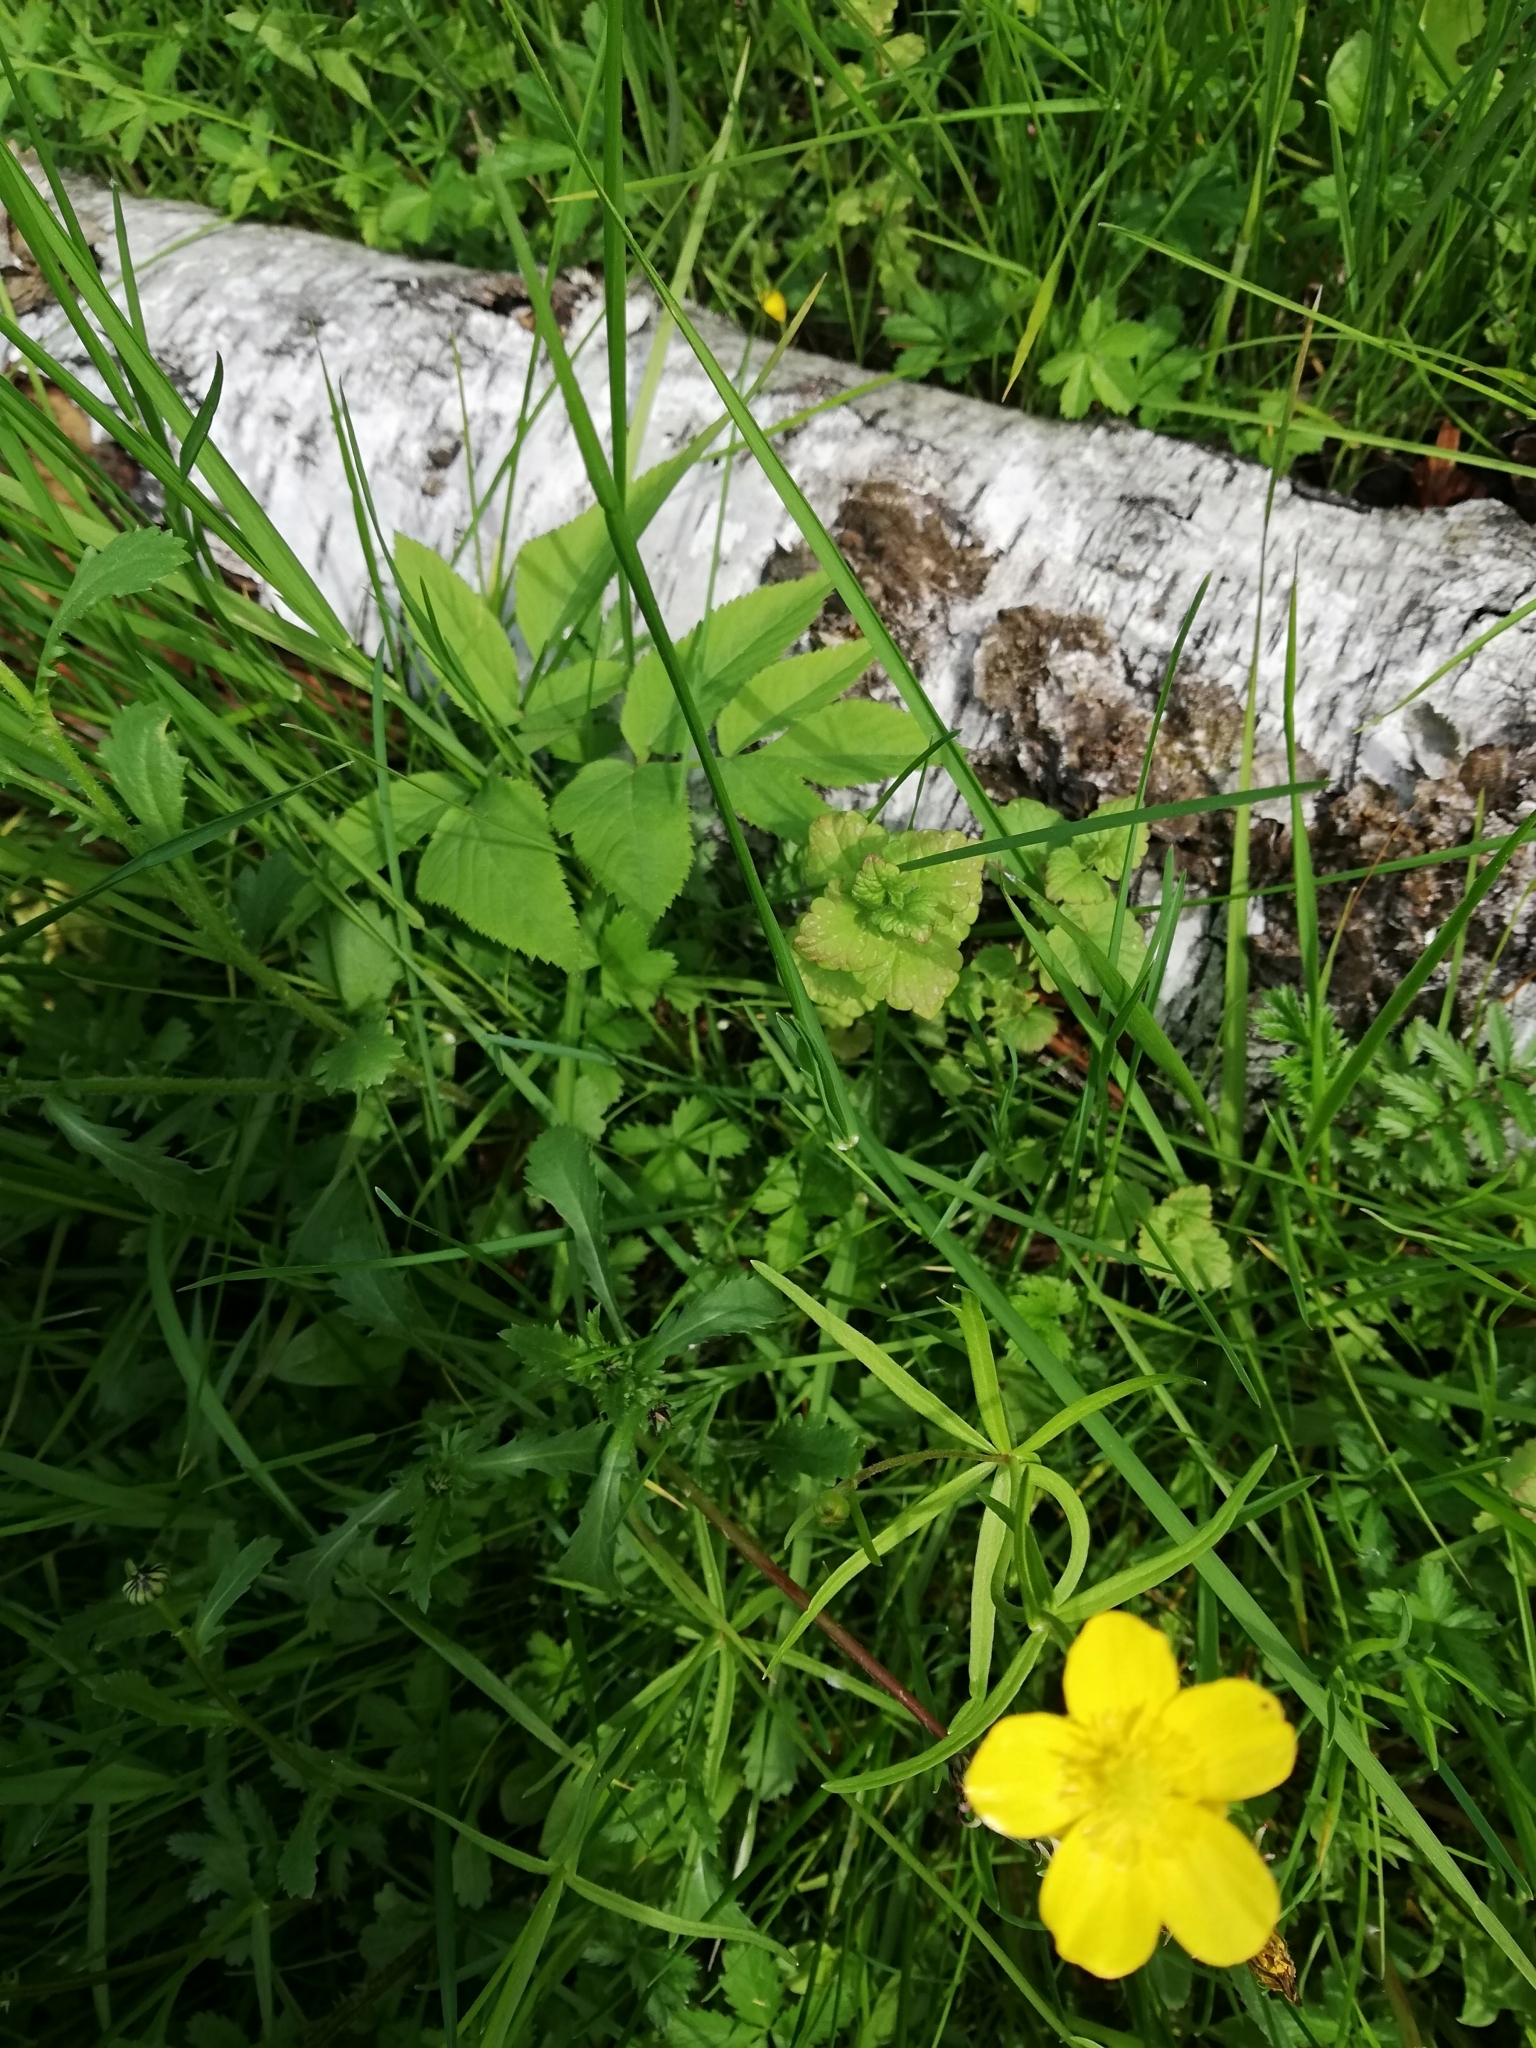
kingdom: Plantae
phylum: Tracheophyta
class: Magnoliopsida
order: Ranunculales
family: Ranunculaceae
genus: Ranunculus
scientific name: Ranunculus auricomus
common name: Goldilocks buttercup
